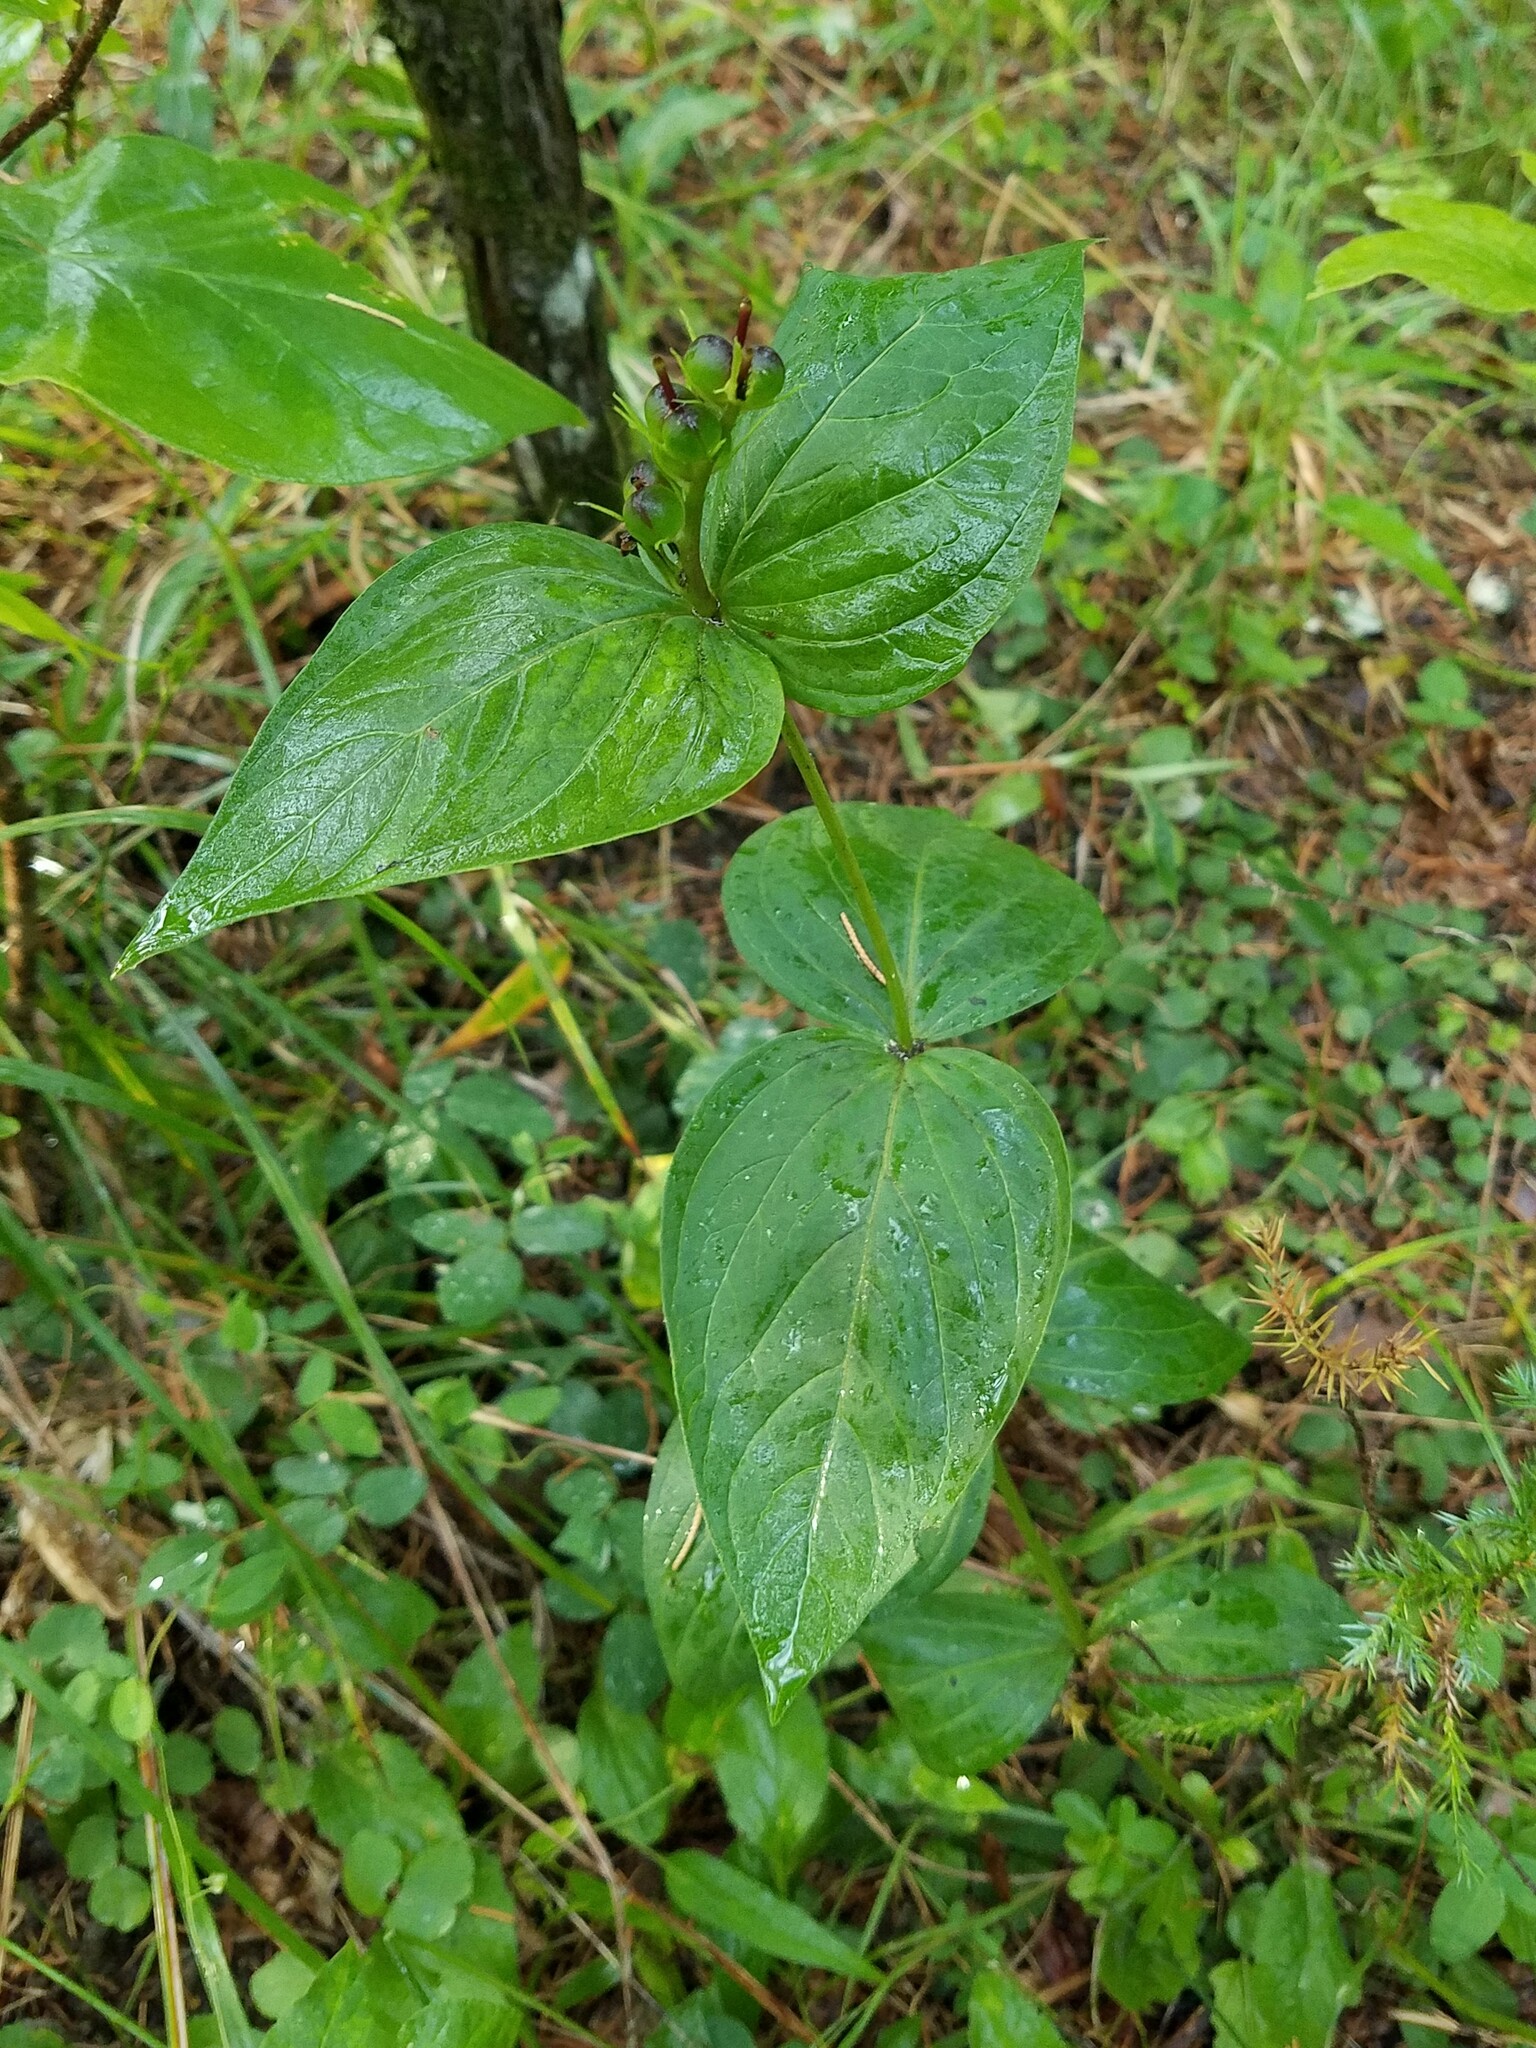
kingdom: Plantae
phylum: Tracheophyta
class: Magnoliopsida
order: Gentianales
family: Loganiaceae
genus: Spigelia
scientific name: Spigelia marilandica
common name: Indian-pink
